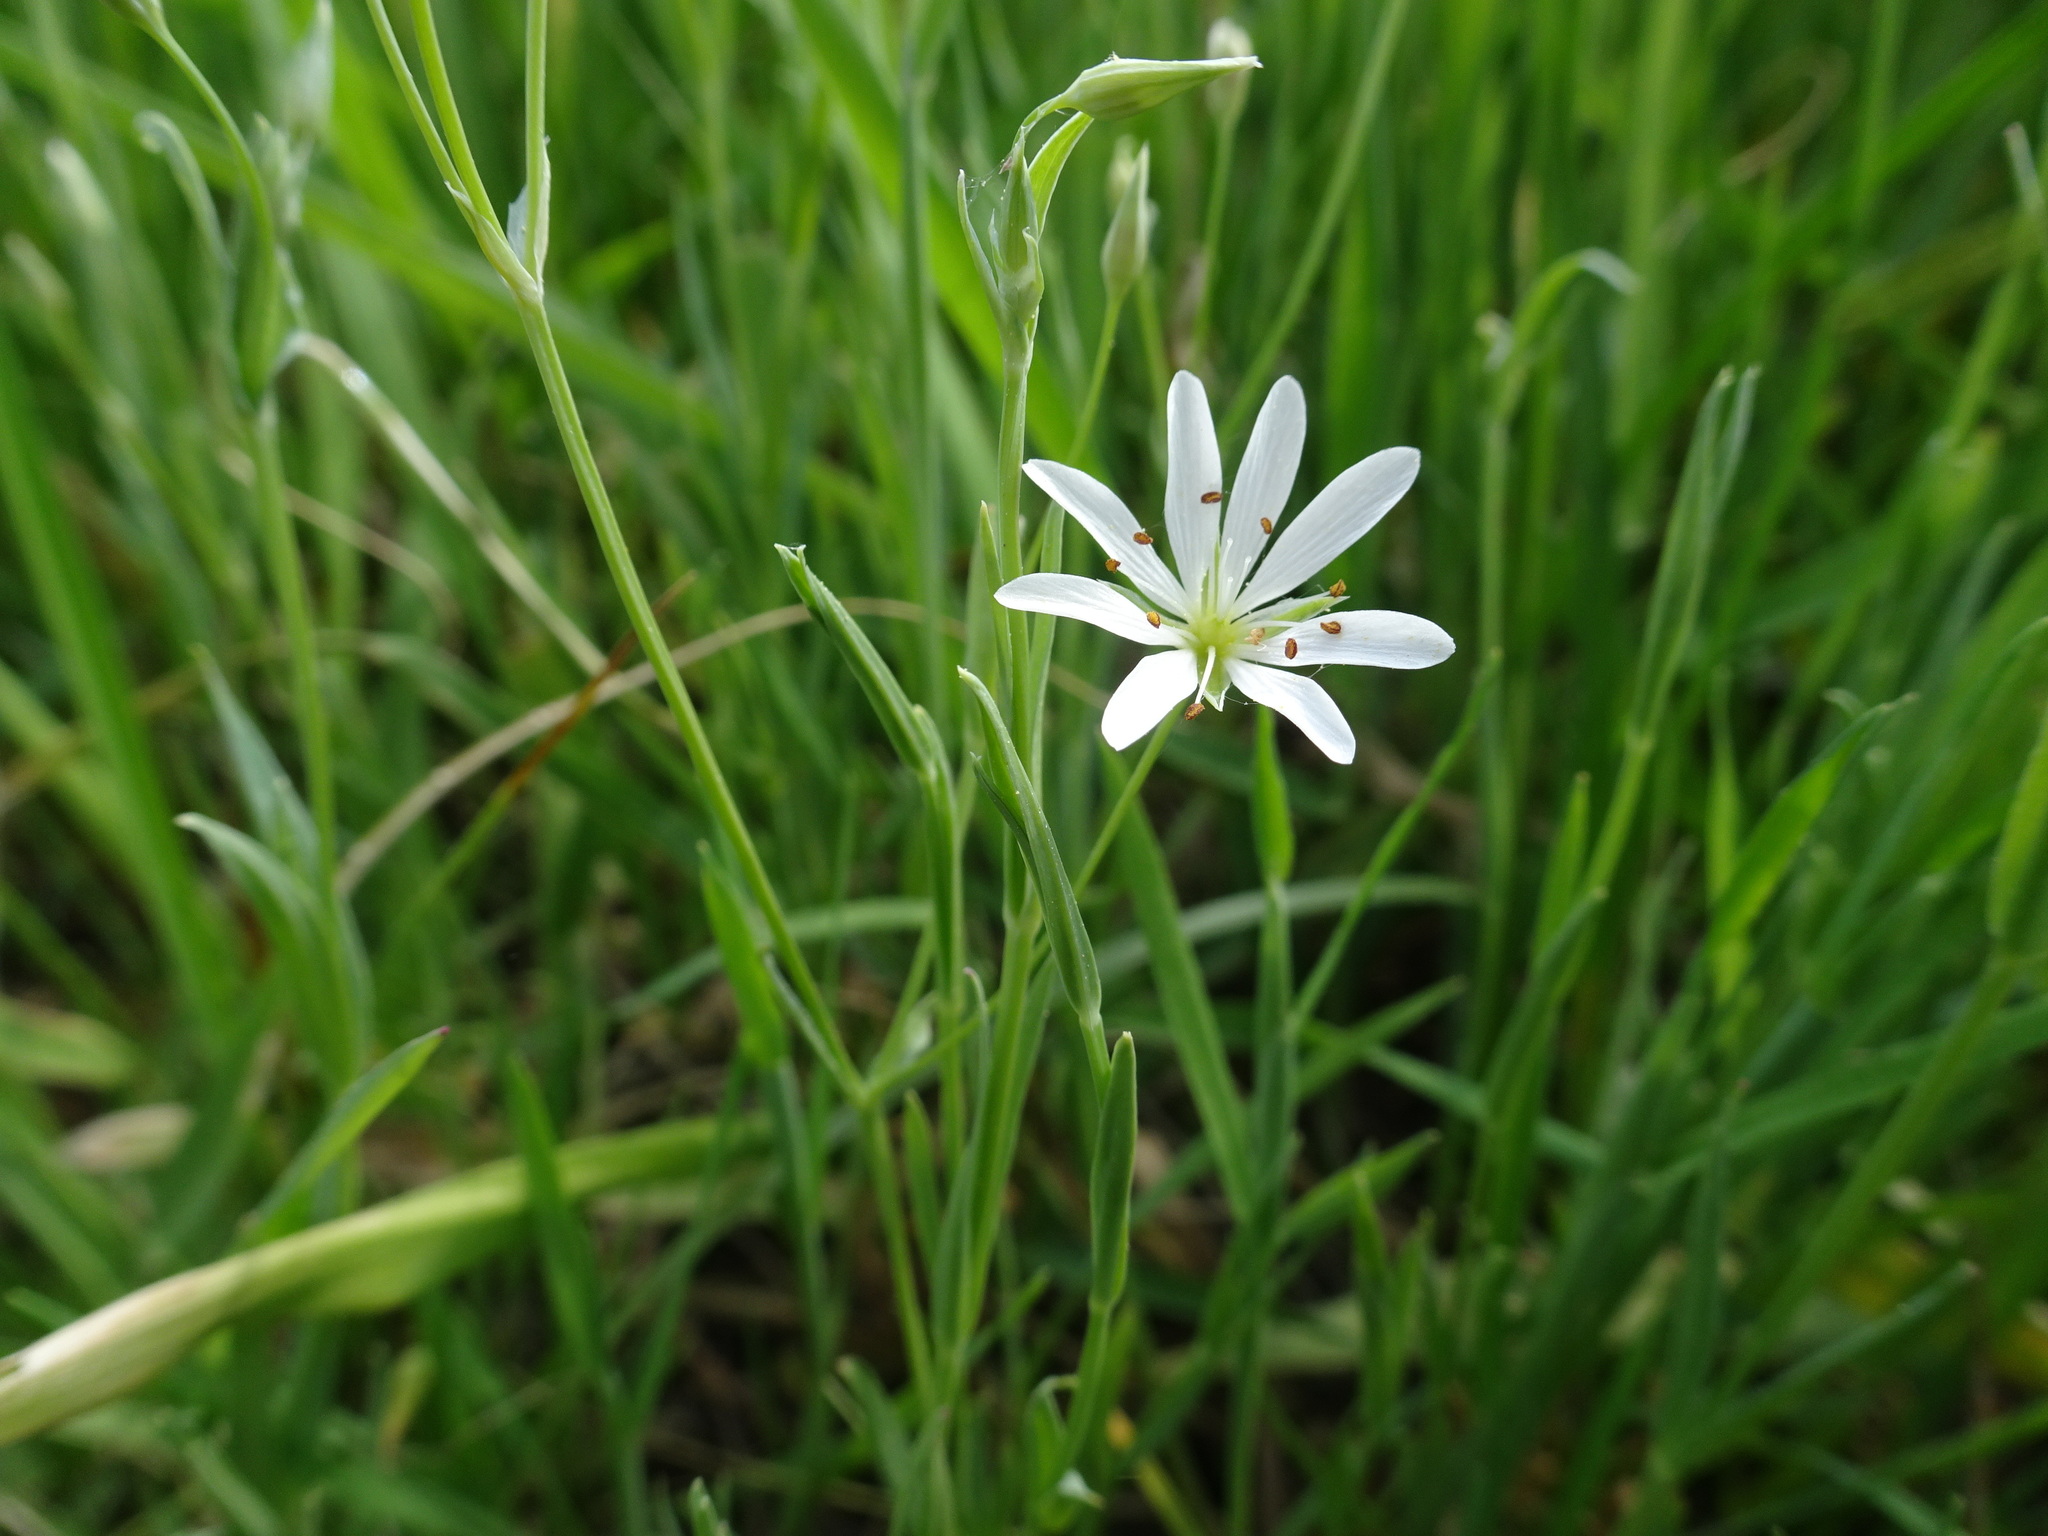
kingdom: Plantae
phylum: Tracheophyta
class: Magnoliopsida
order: Caryophyllales
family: Caryophyllaceae
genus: Stellaria
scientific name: Stellaria graminea
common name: Grass-like starwort
